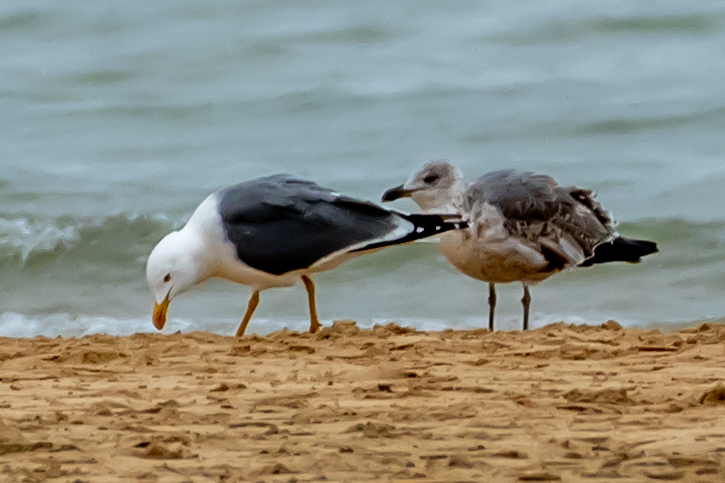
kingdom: Animalia
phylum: Chordata
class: Aves
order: Charadriiformes
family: Laridae
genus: Larus
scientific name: Larus fuscus
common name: Lesser black-backed gull
